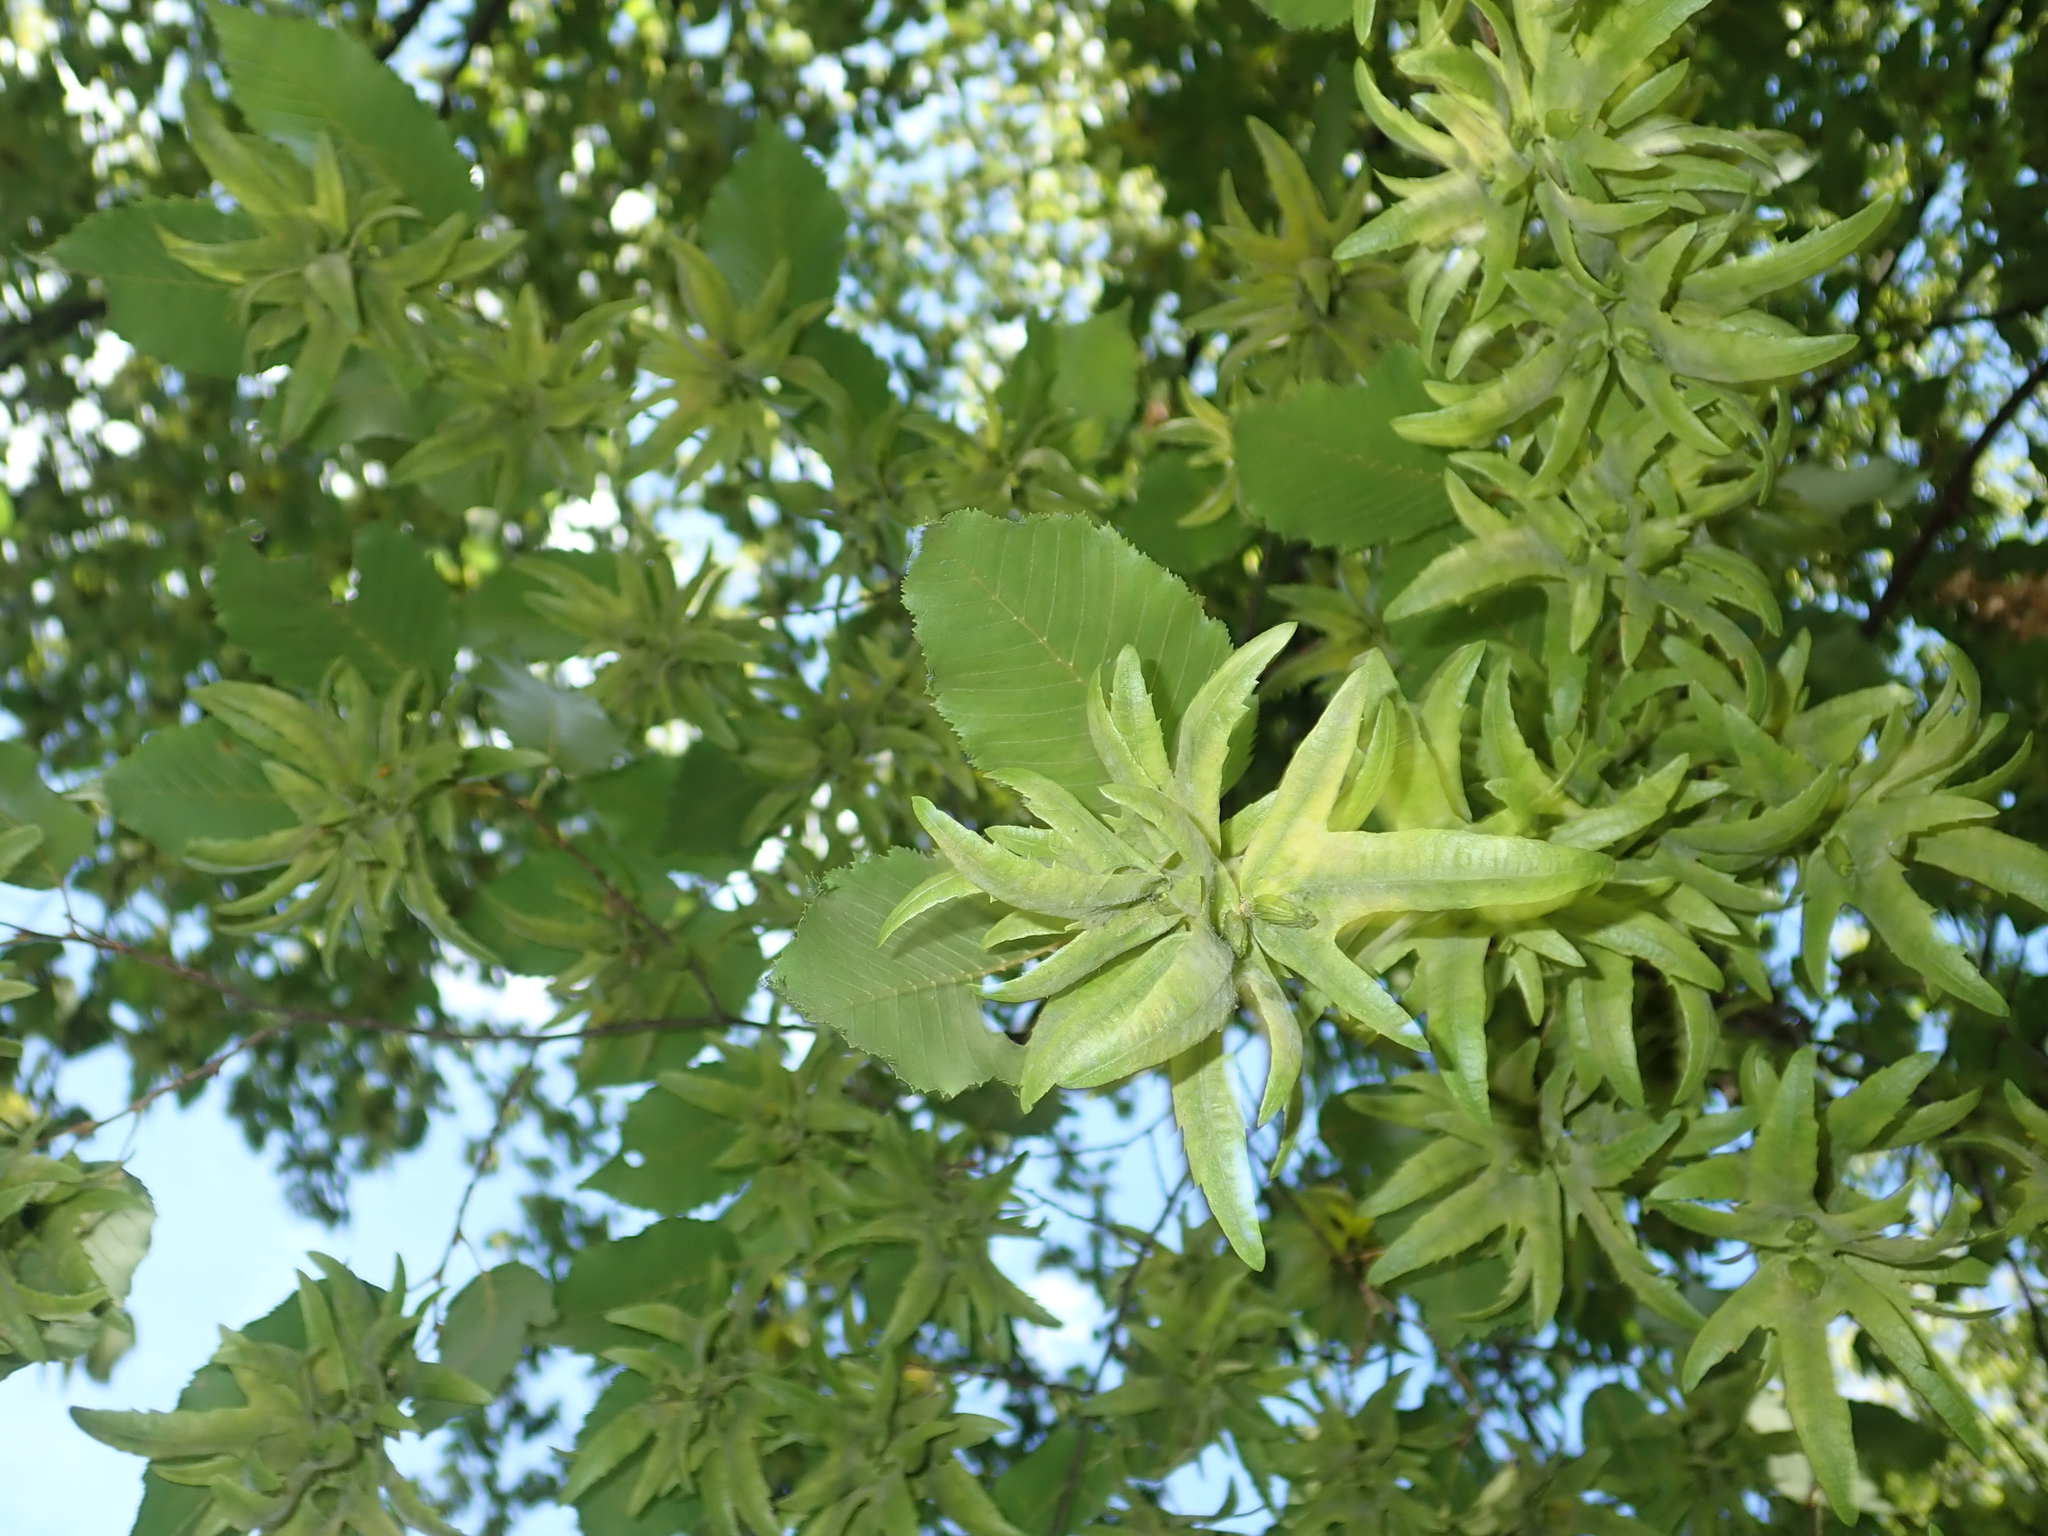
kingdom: Plantae
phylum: Tracheophyta
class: Magnoliopsida
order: Fagales
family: Betulaceae
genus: Carpinus
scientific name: Carpinus betulus
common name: Hornbeam
